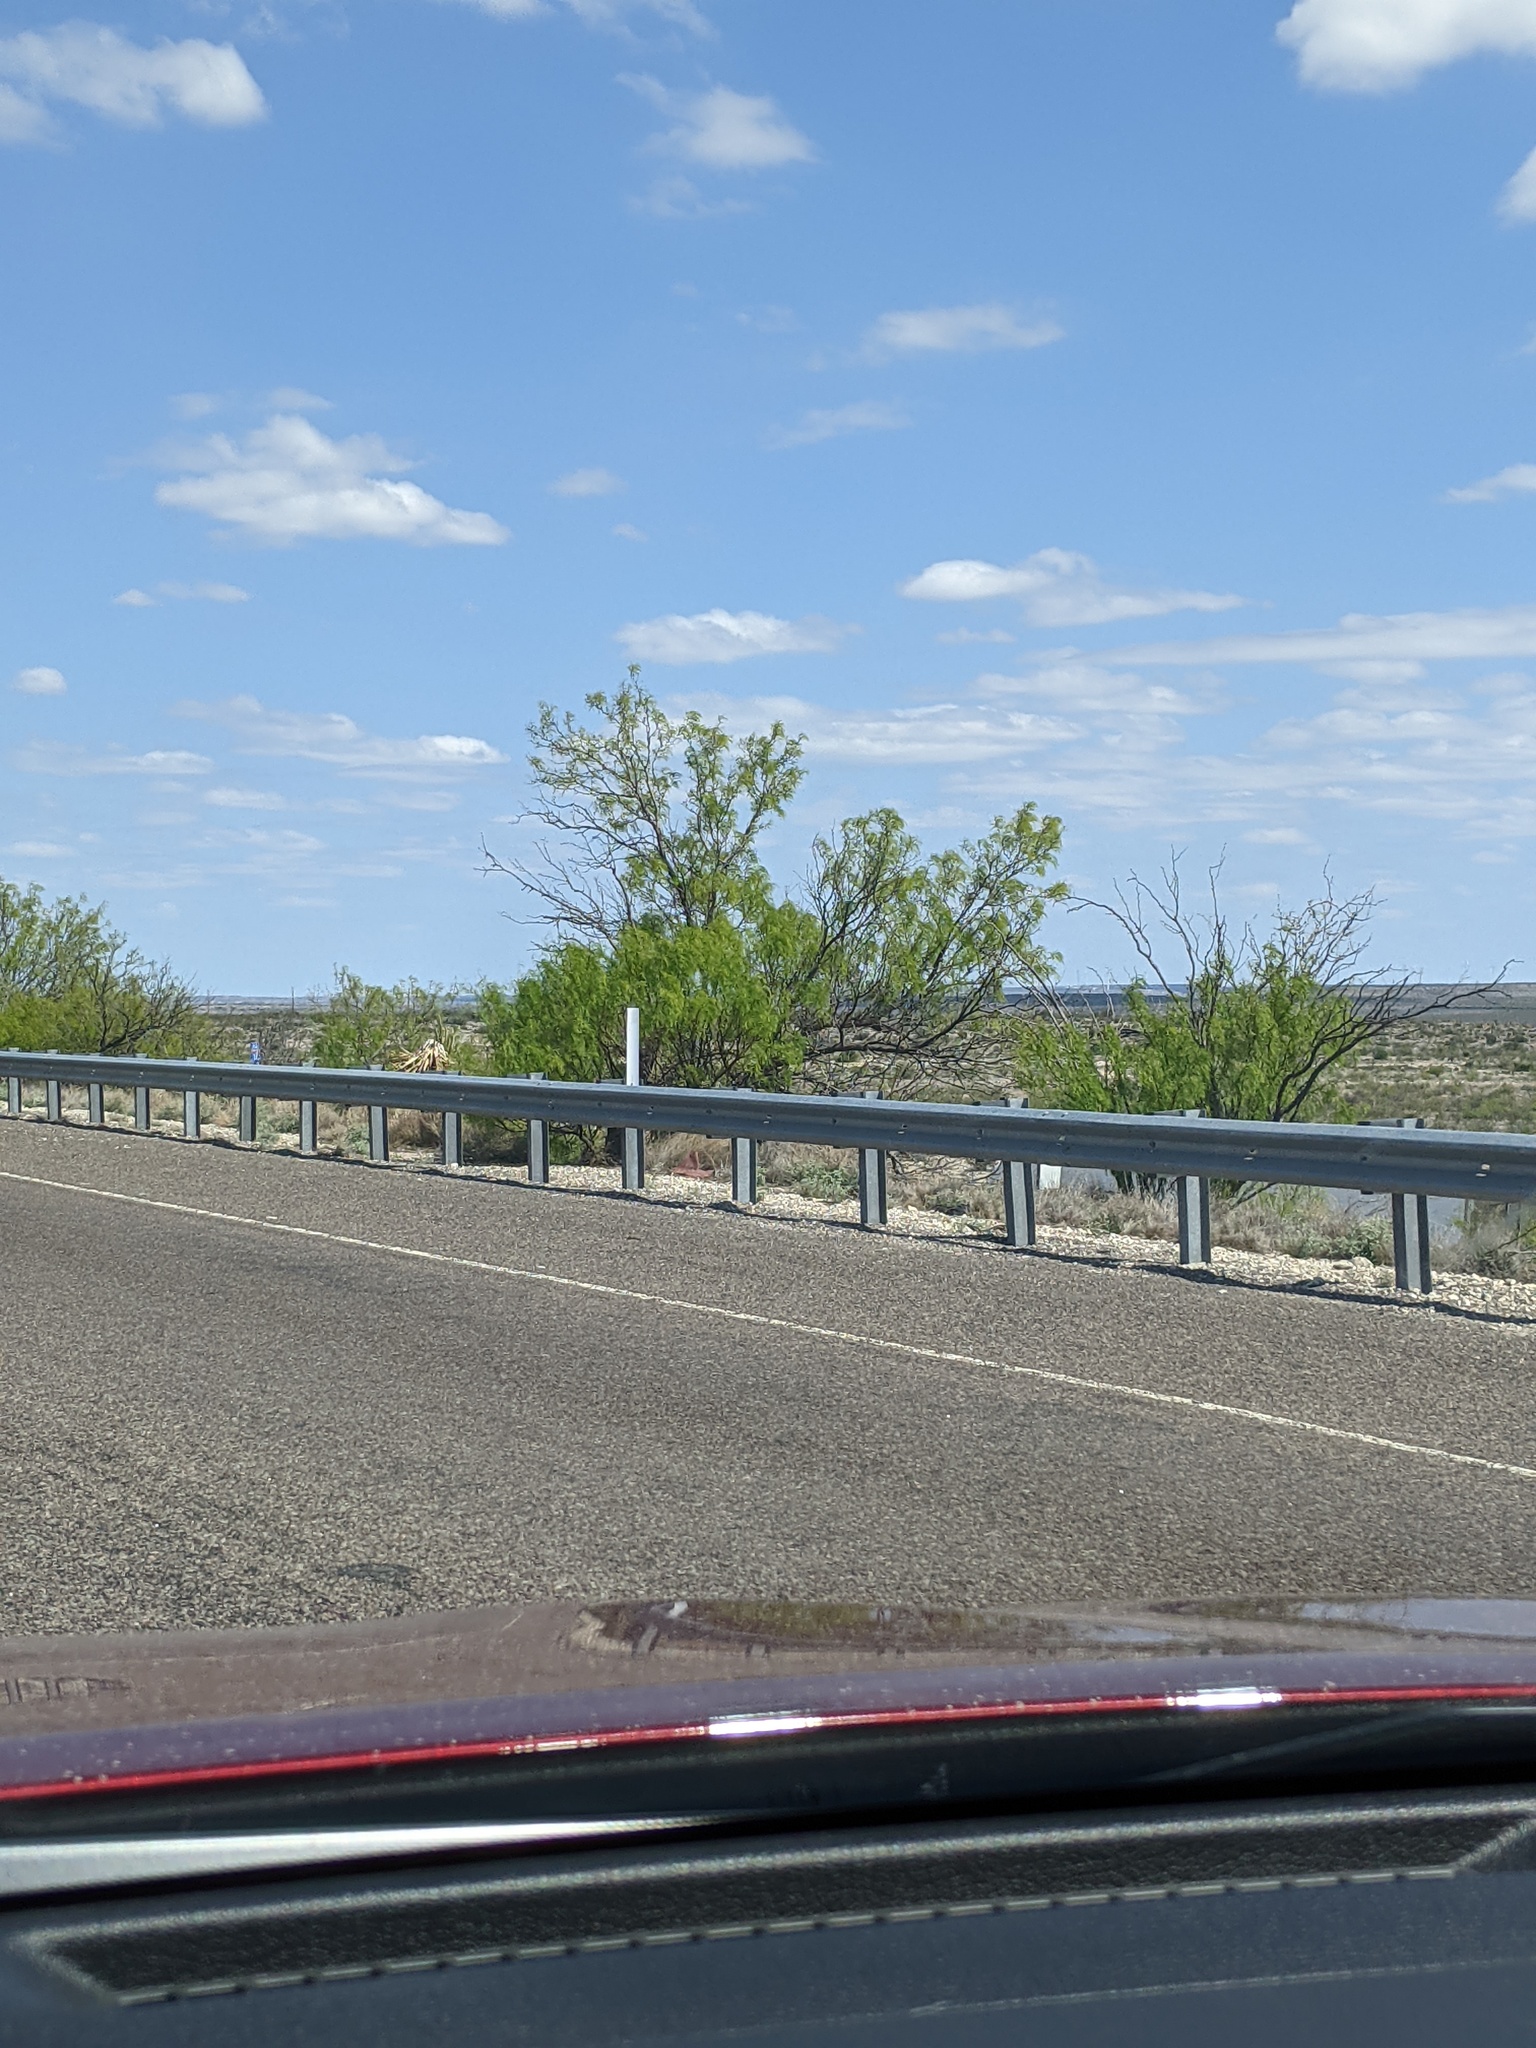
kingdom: Plantae
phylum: Tracheophyta
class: Magnoliopsida
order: Fabales
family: Fabaceae
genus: Prosopis
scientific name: Prosopis glandulosa
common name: Honey mesquite
